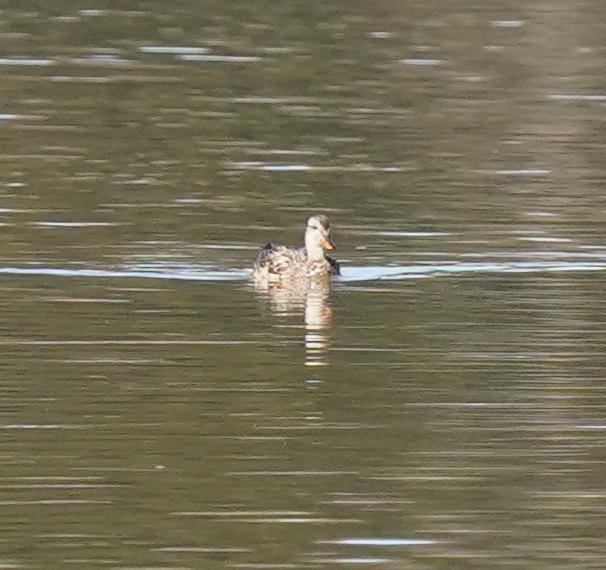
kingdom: Animalia
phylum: Chordata
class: Aves
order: Anseriformes
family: Anatidae
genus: Mareca
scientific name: Mareca strepera
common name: Gadwall
